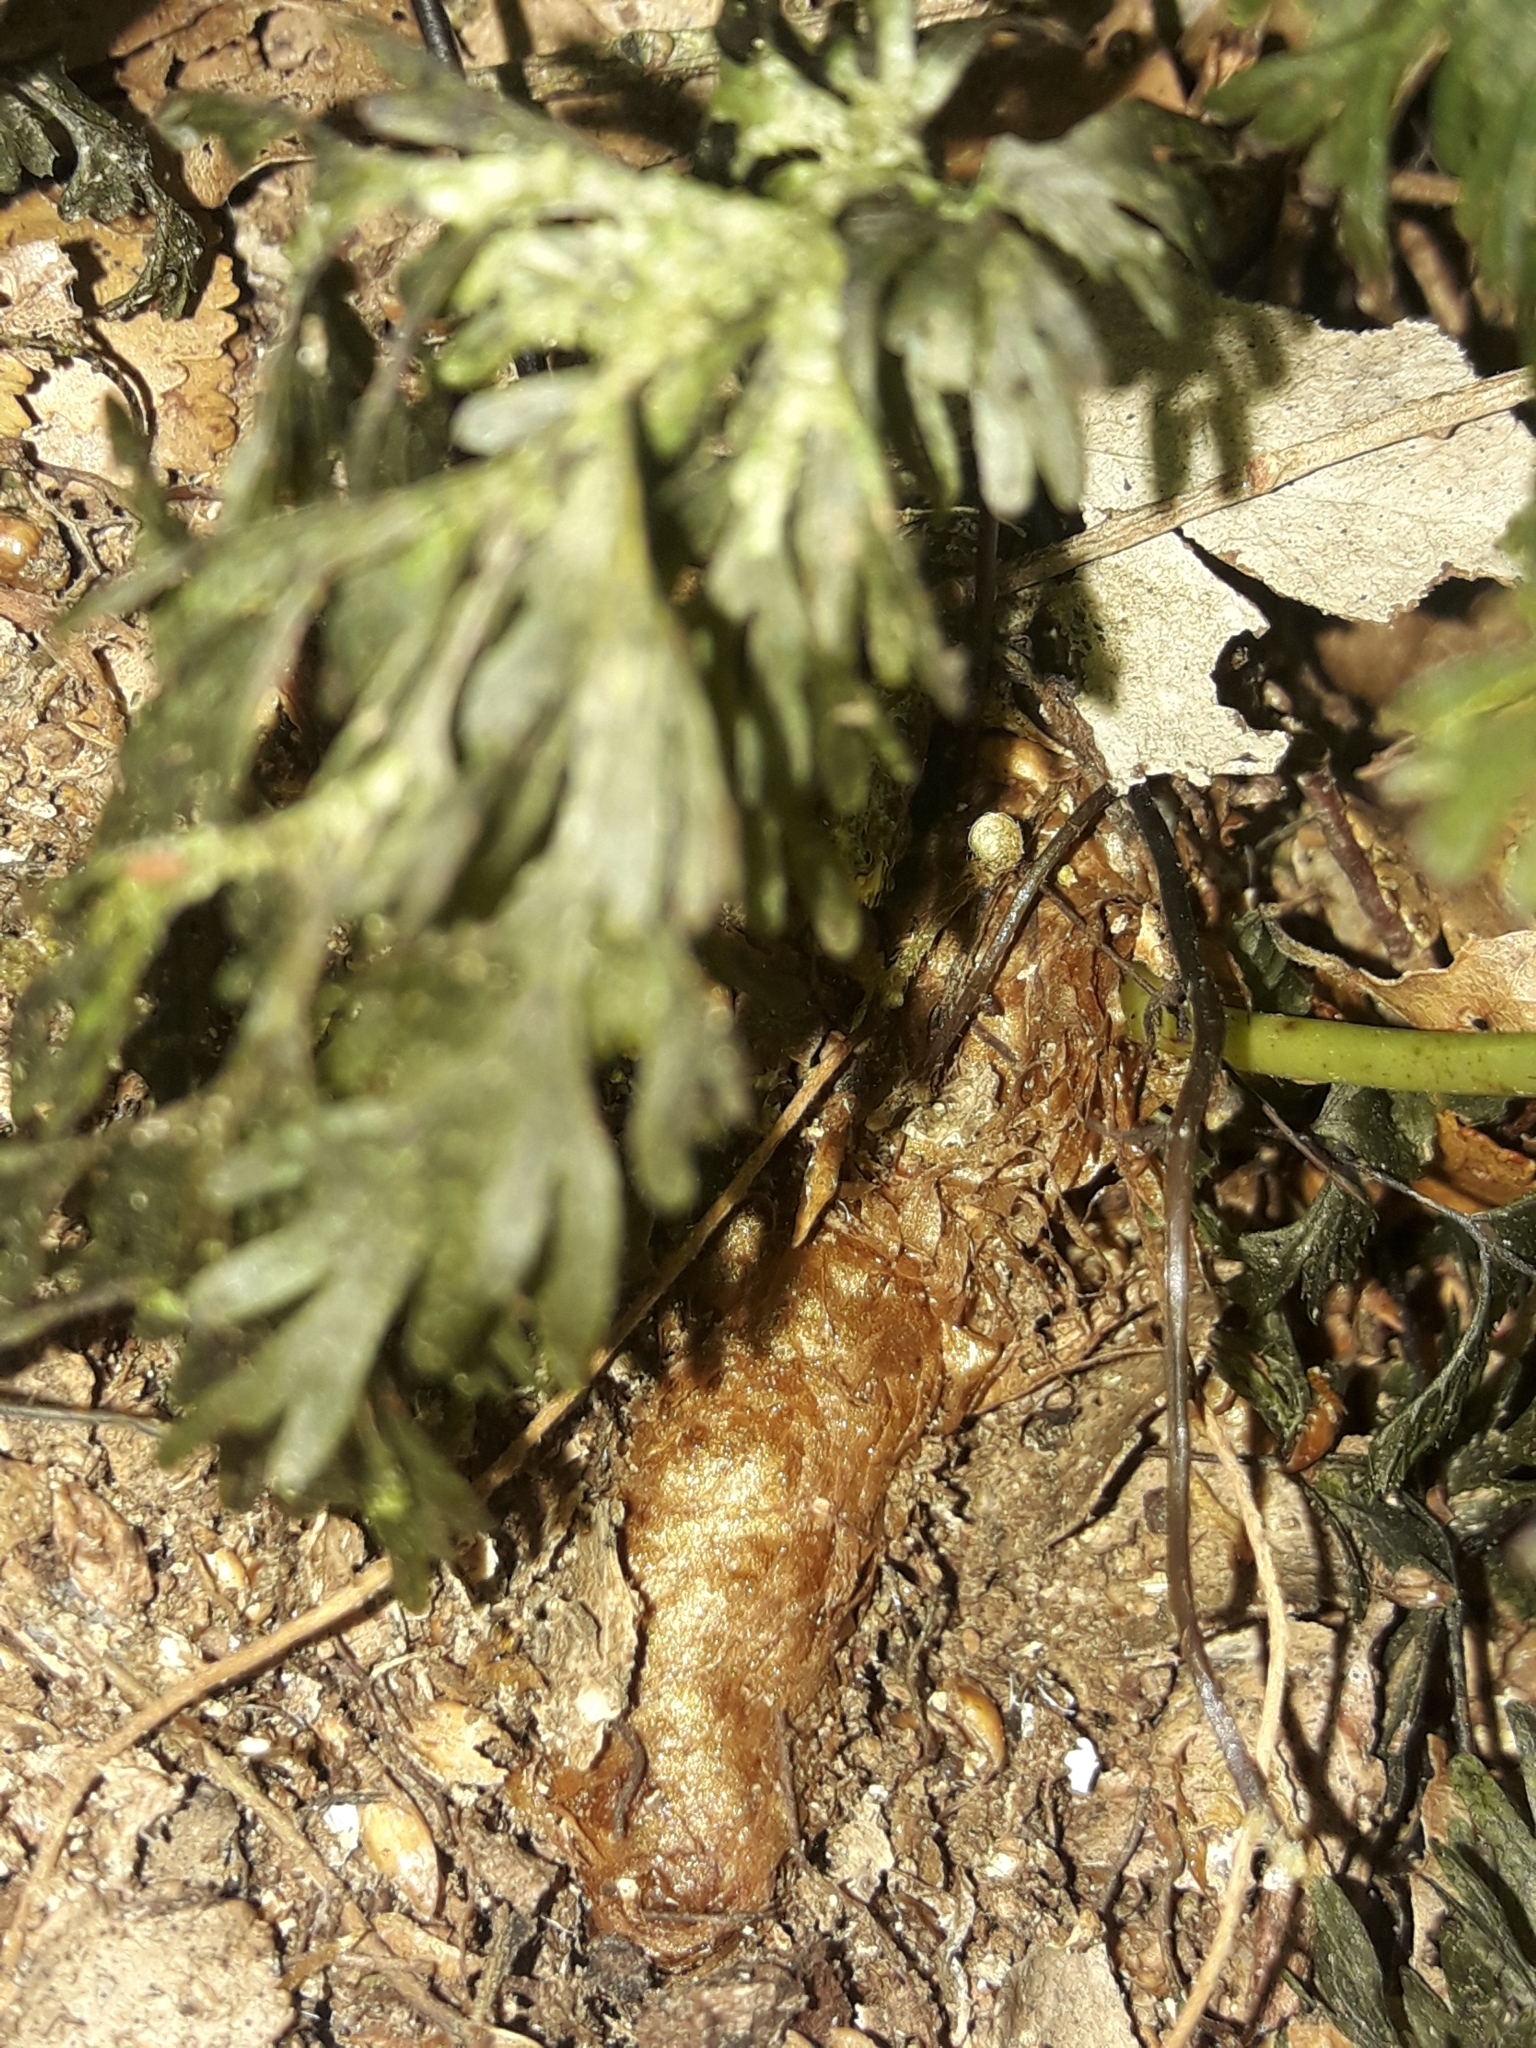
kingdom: Plantae
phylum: Tracheophyta
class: Polypodiopsida
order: Polypodiales
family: Polypodiaceae
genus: Lecanopteris
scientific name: Lecanopteris novae-zealandiae
